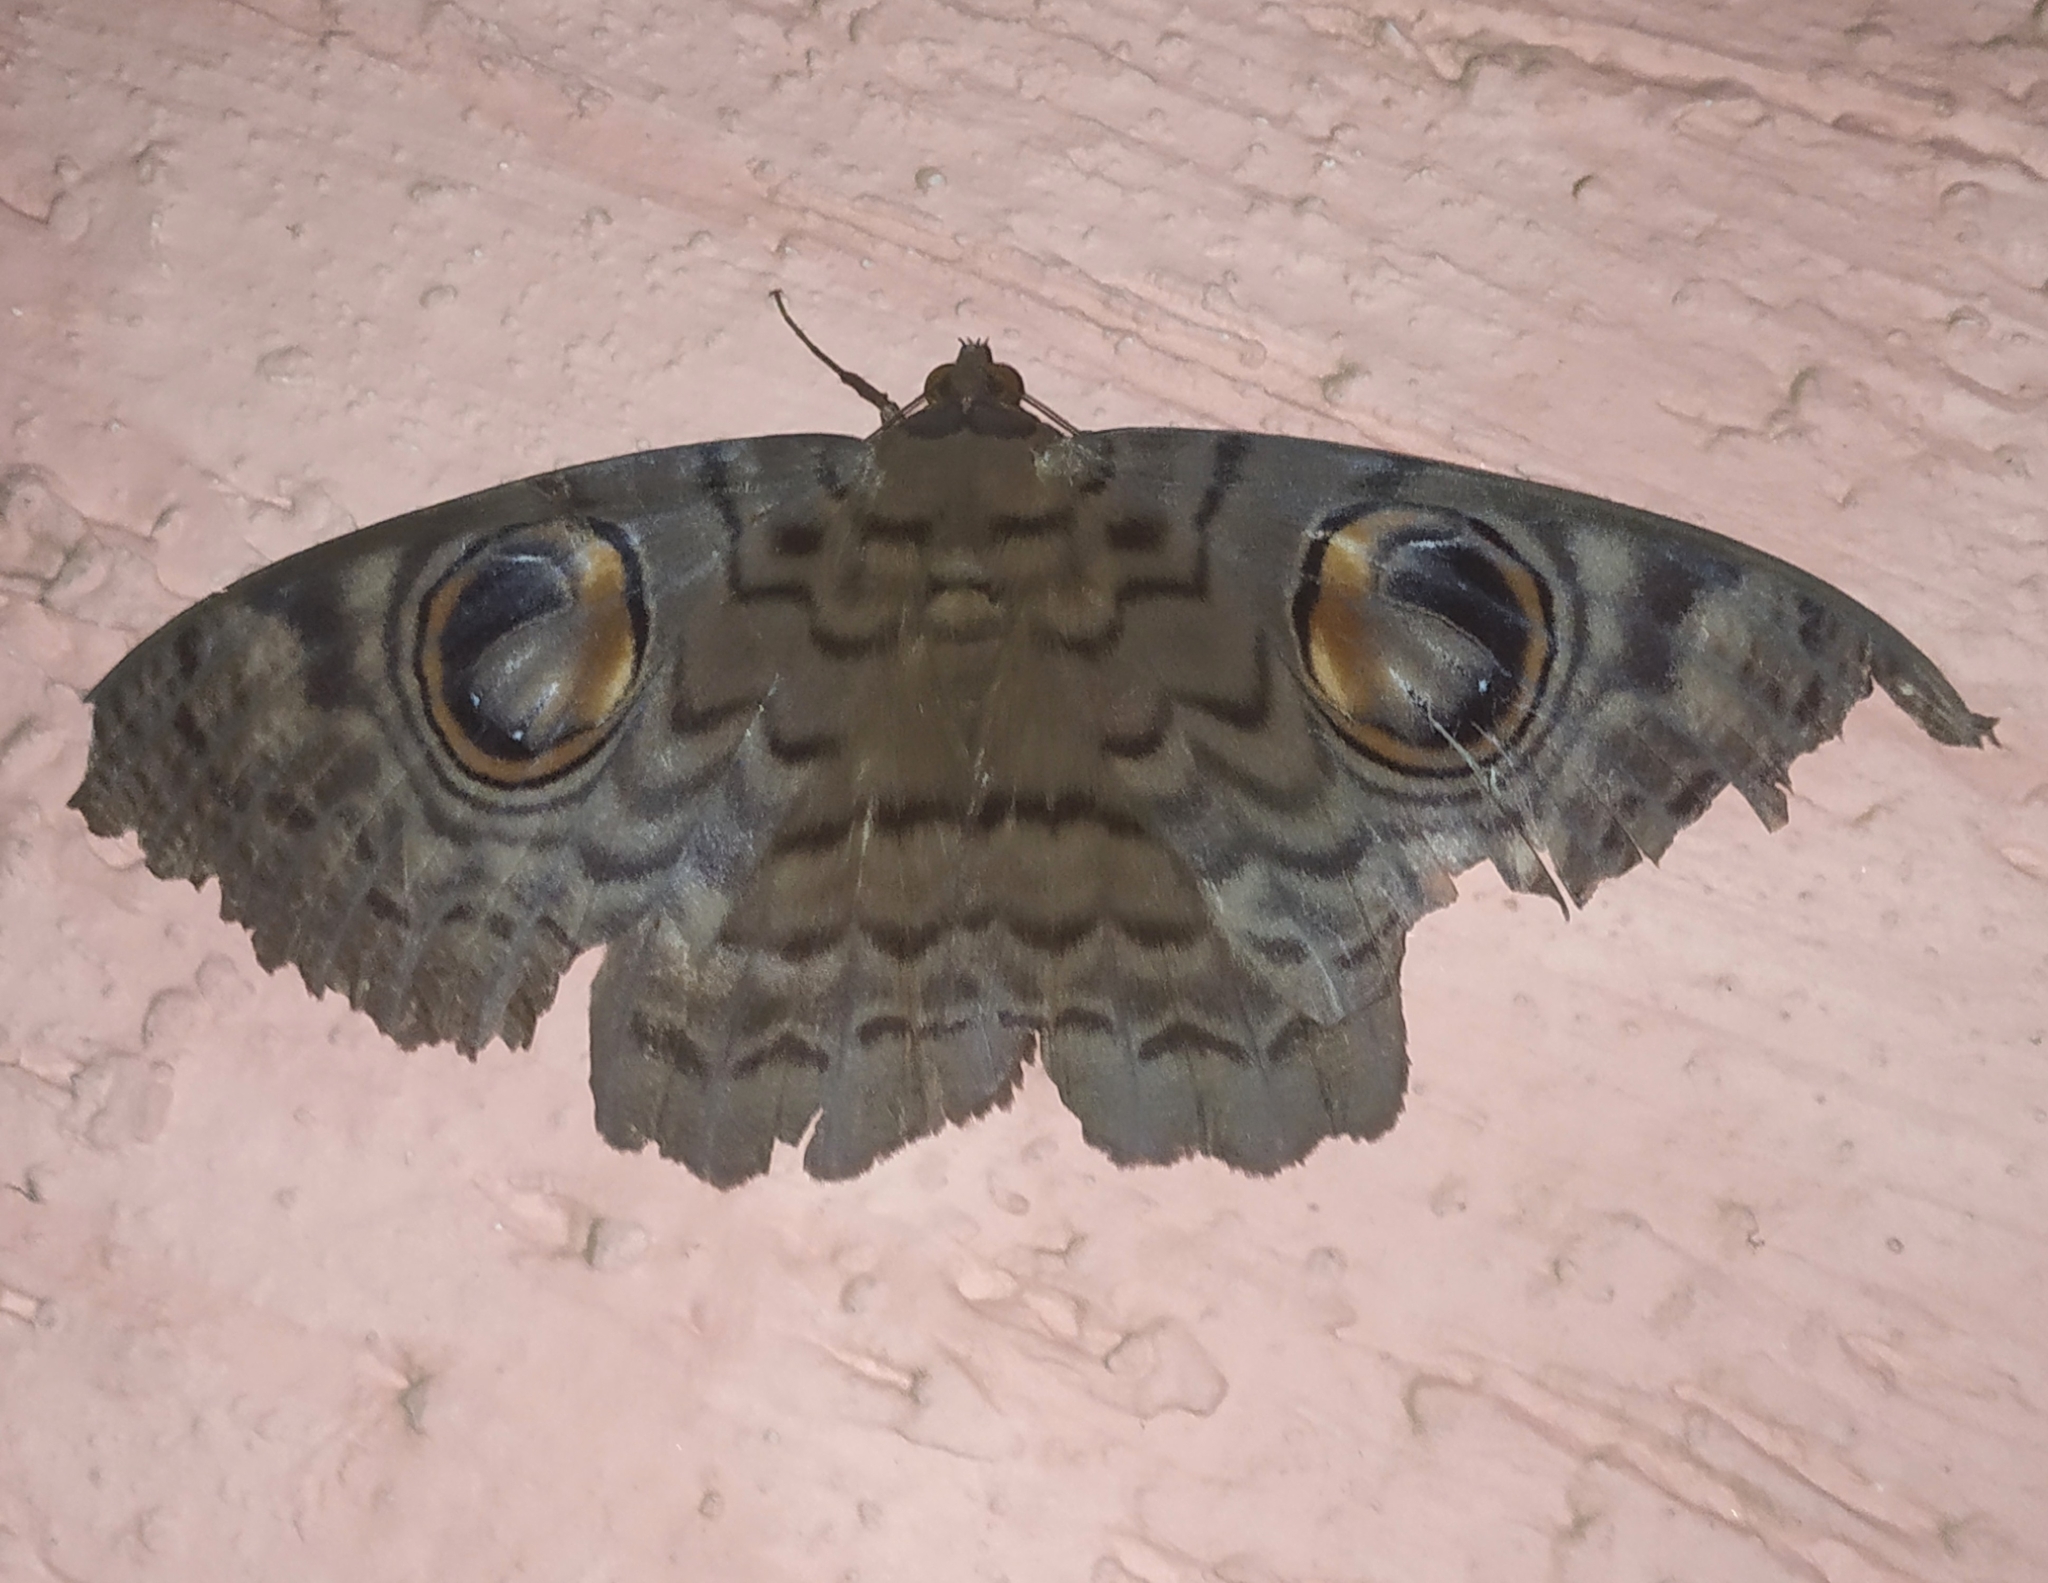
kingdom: Animalia
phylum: Arthropoda
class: Insecta
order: Lepidoptera
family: Erebidae
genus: Erebus
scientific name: Erebus macrops
